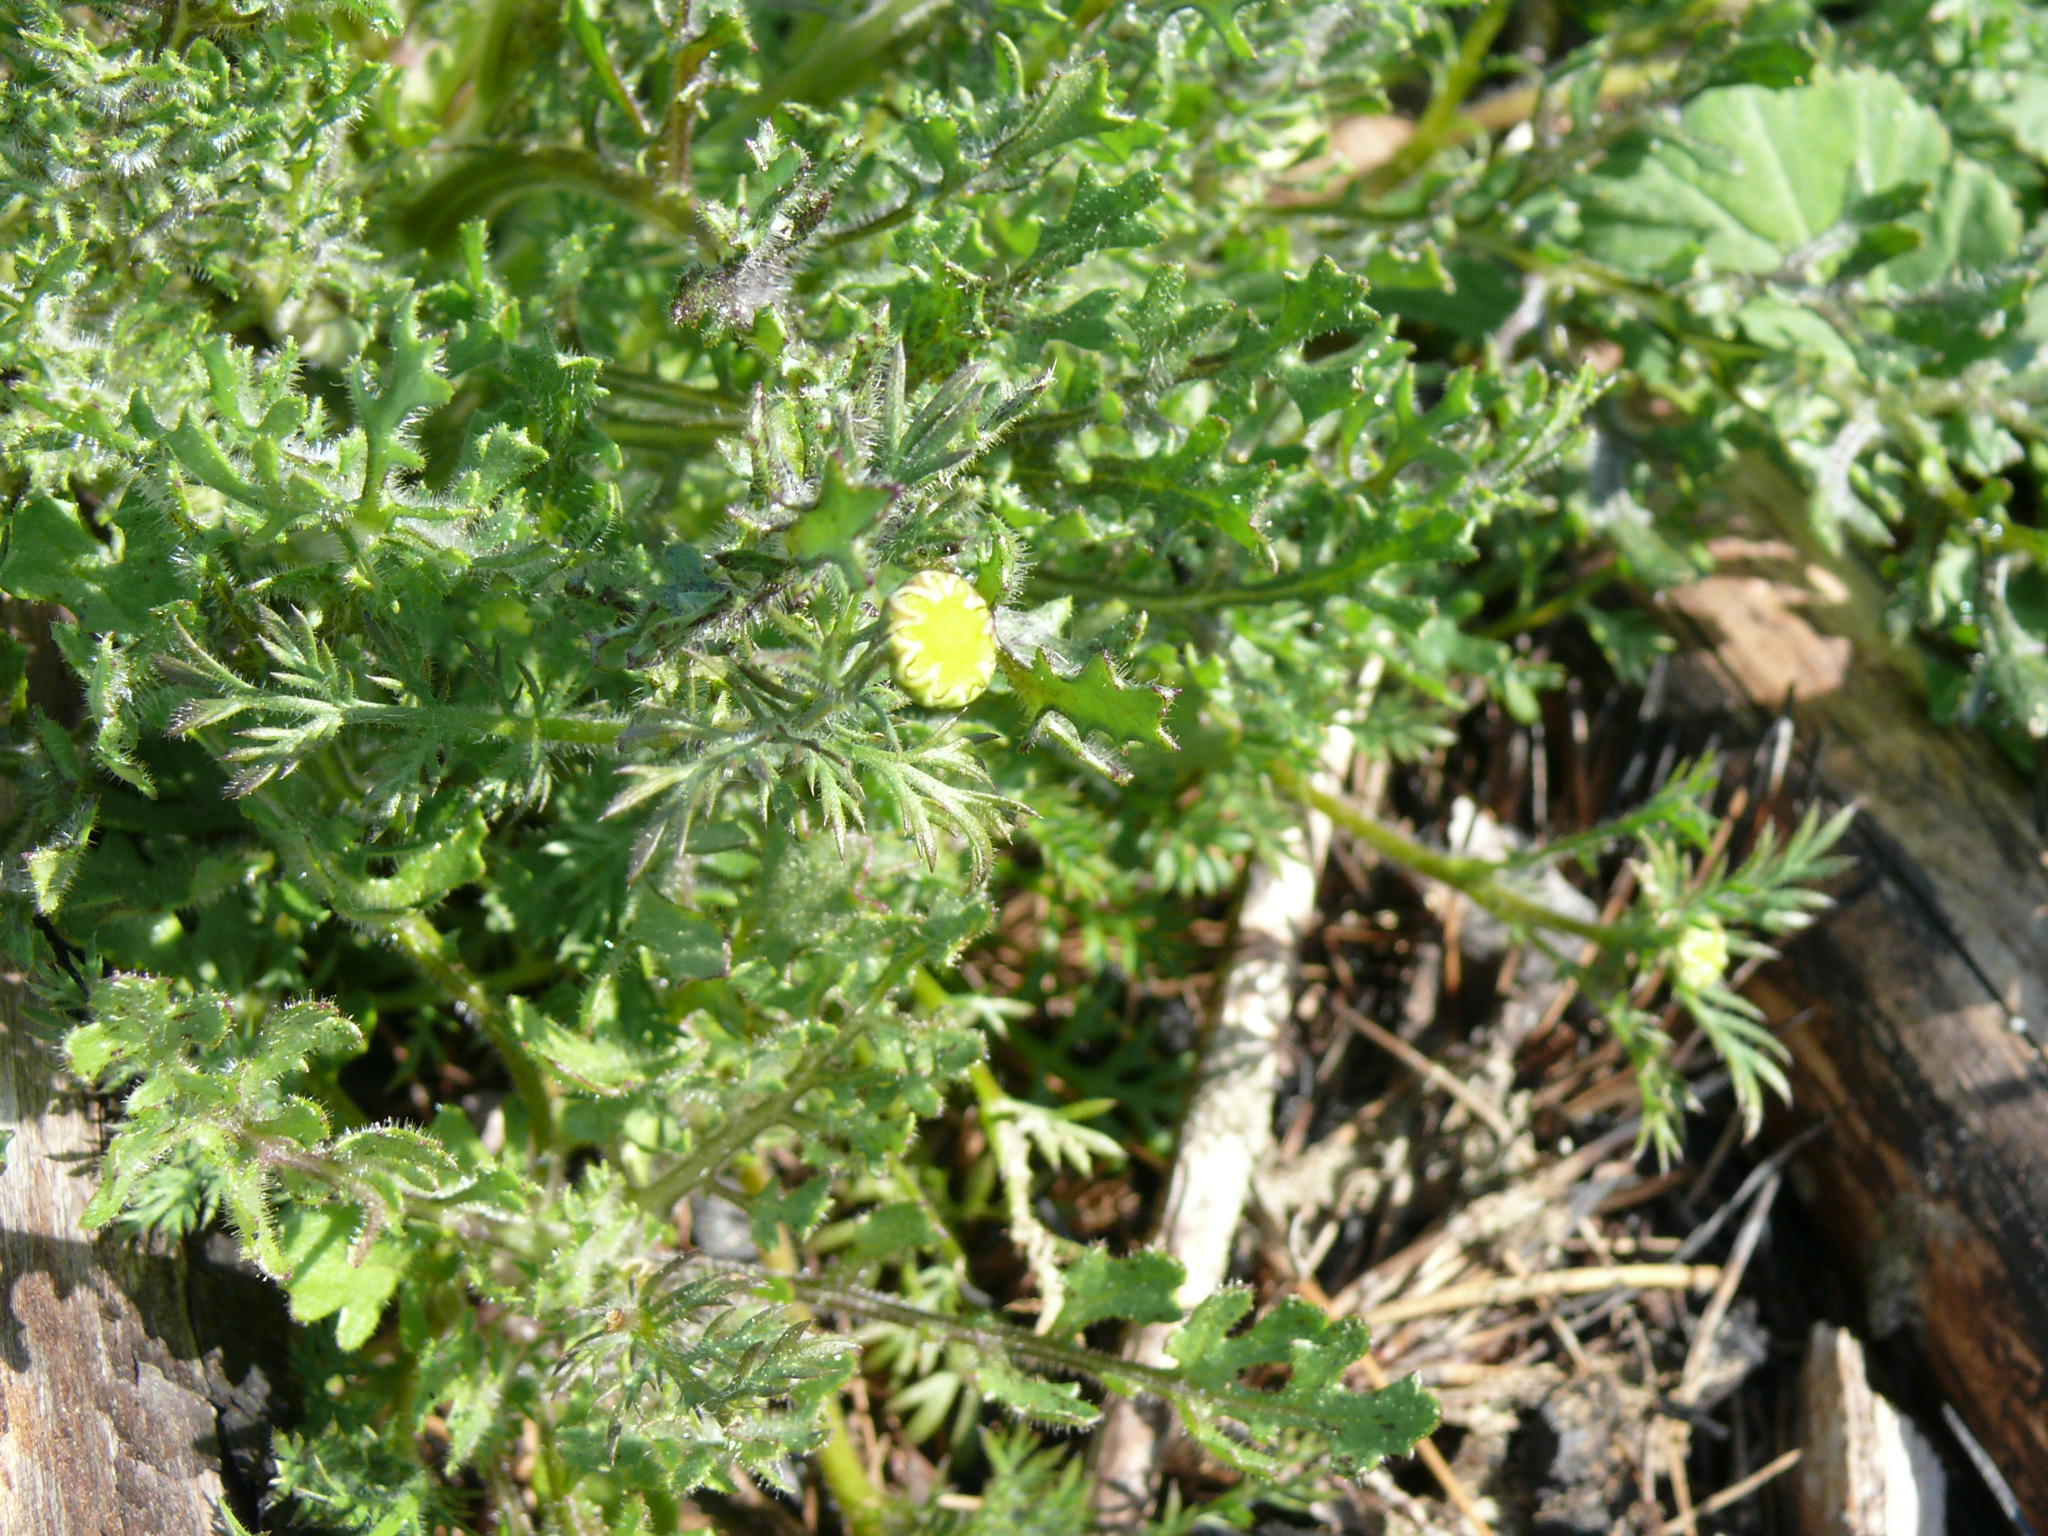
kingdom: Plantae
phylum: Tracheophyta
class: Magnoliopsida
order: Asterales
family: Asteraceae
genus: Cotula
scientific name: Cotula turbinata
